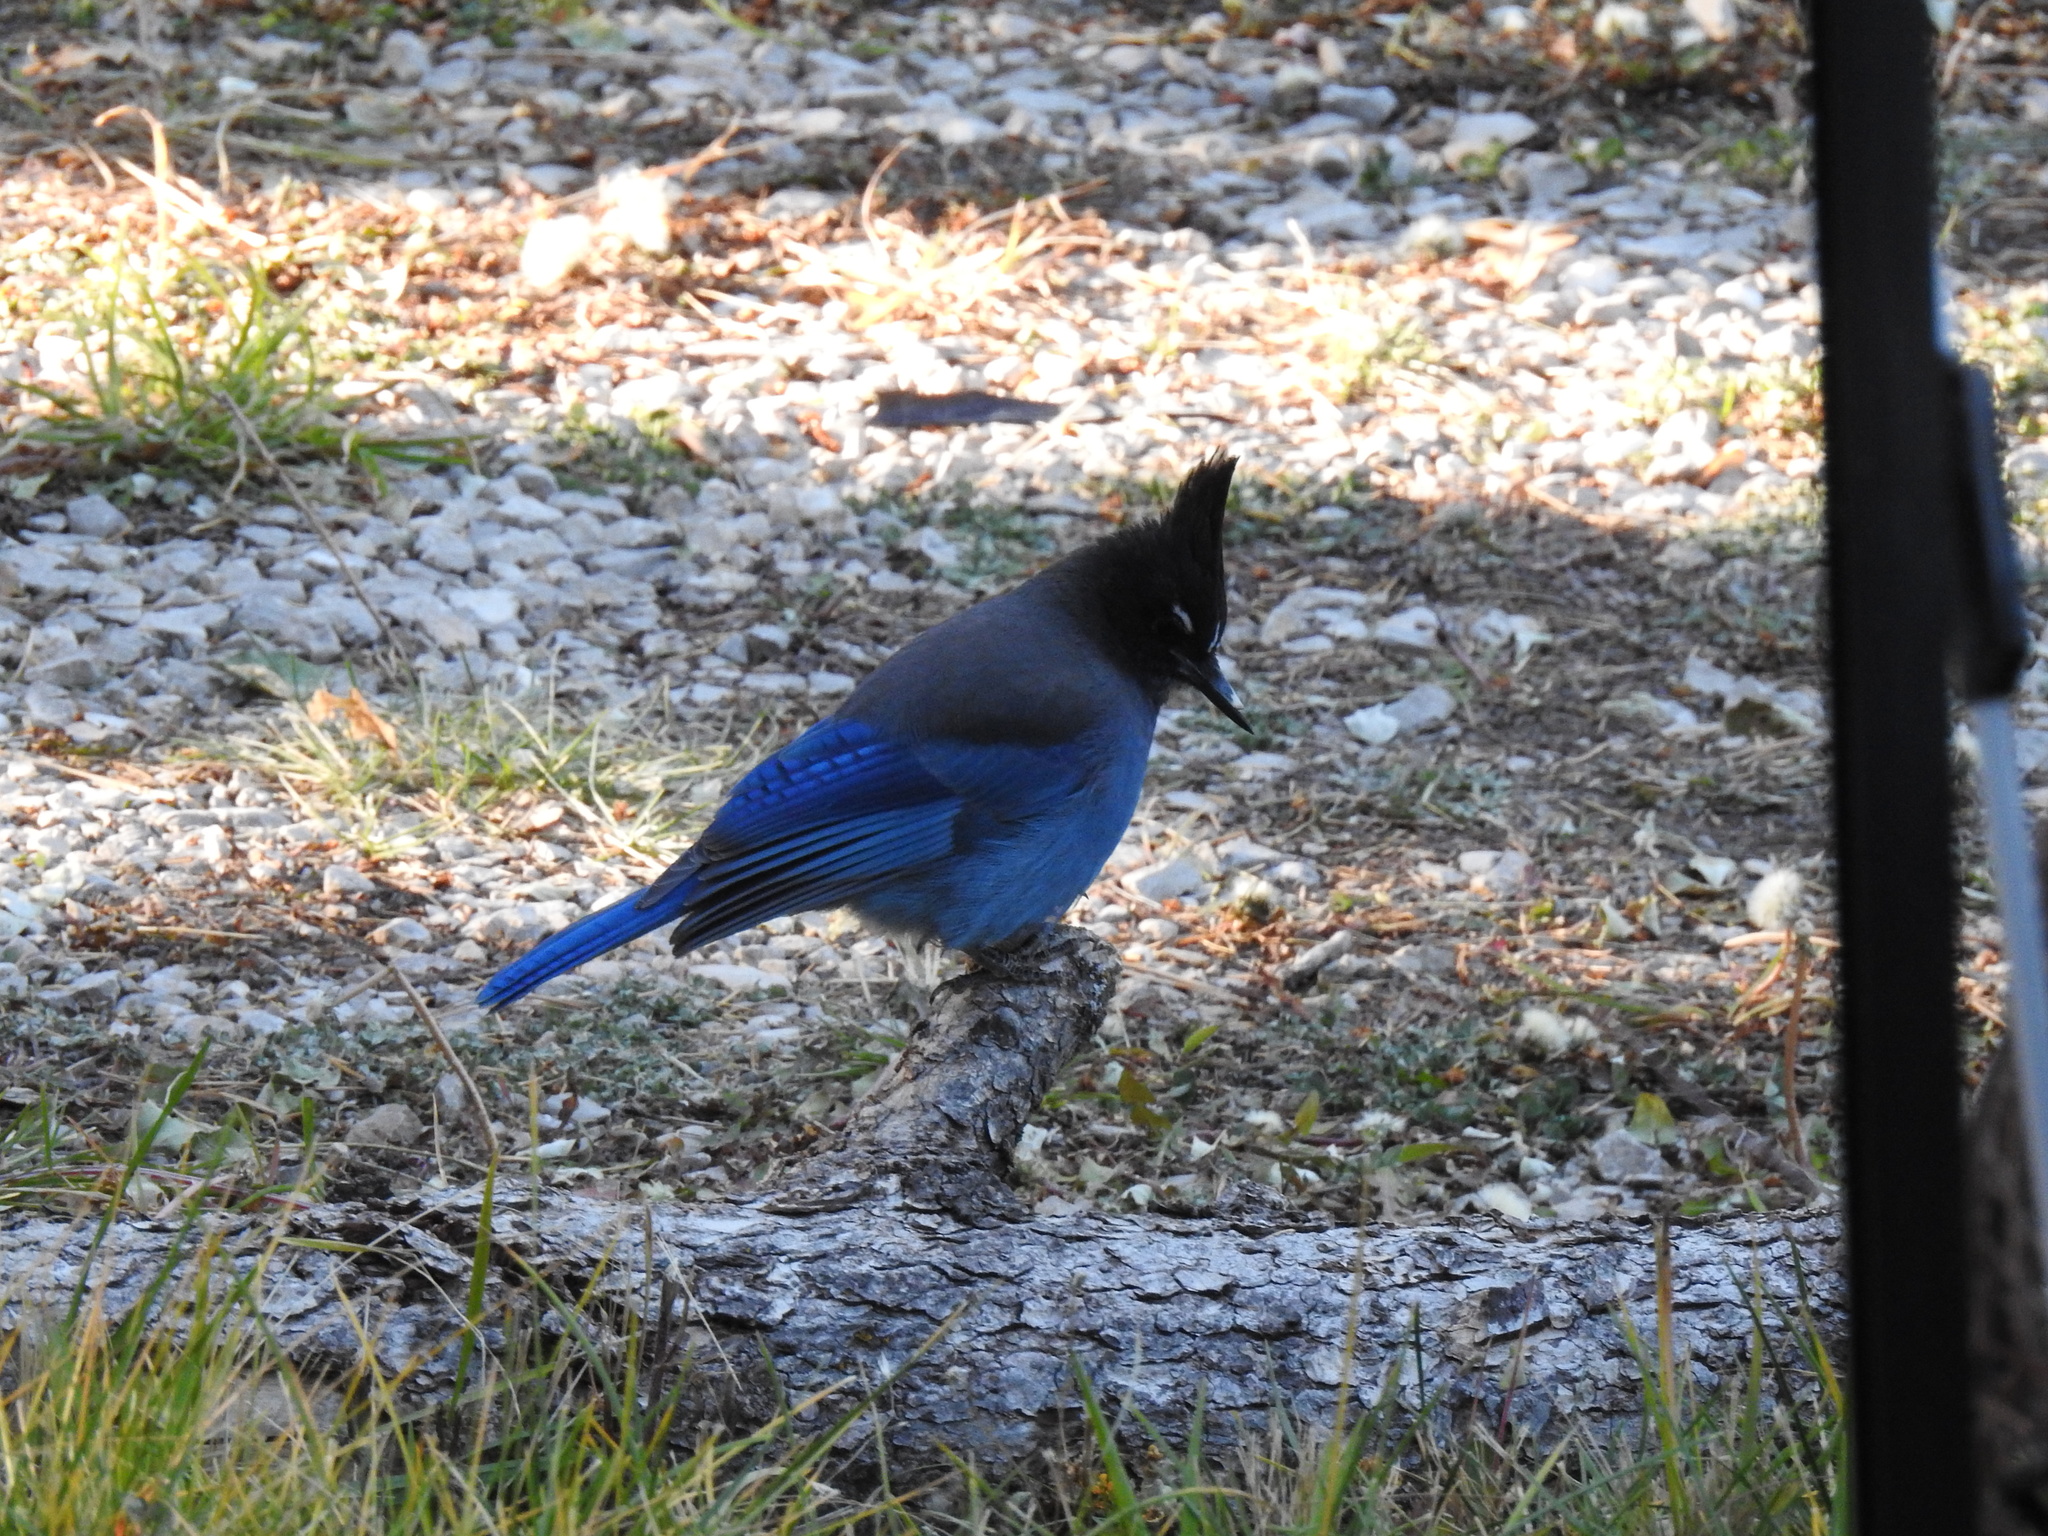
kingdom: Animalia
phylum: Chordata
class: Aves
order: Passeriformes
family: Corvidae
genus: Cyanocitta
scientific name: Cyanocitta stelleri
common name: Steller's jay
